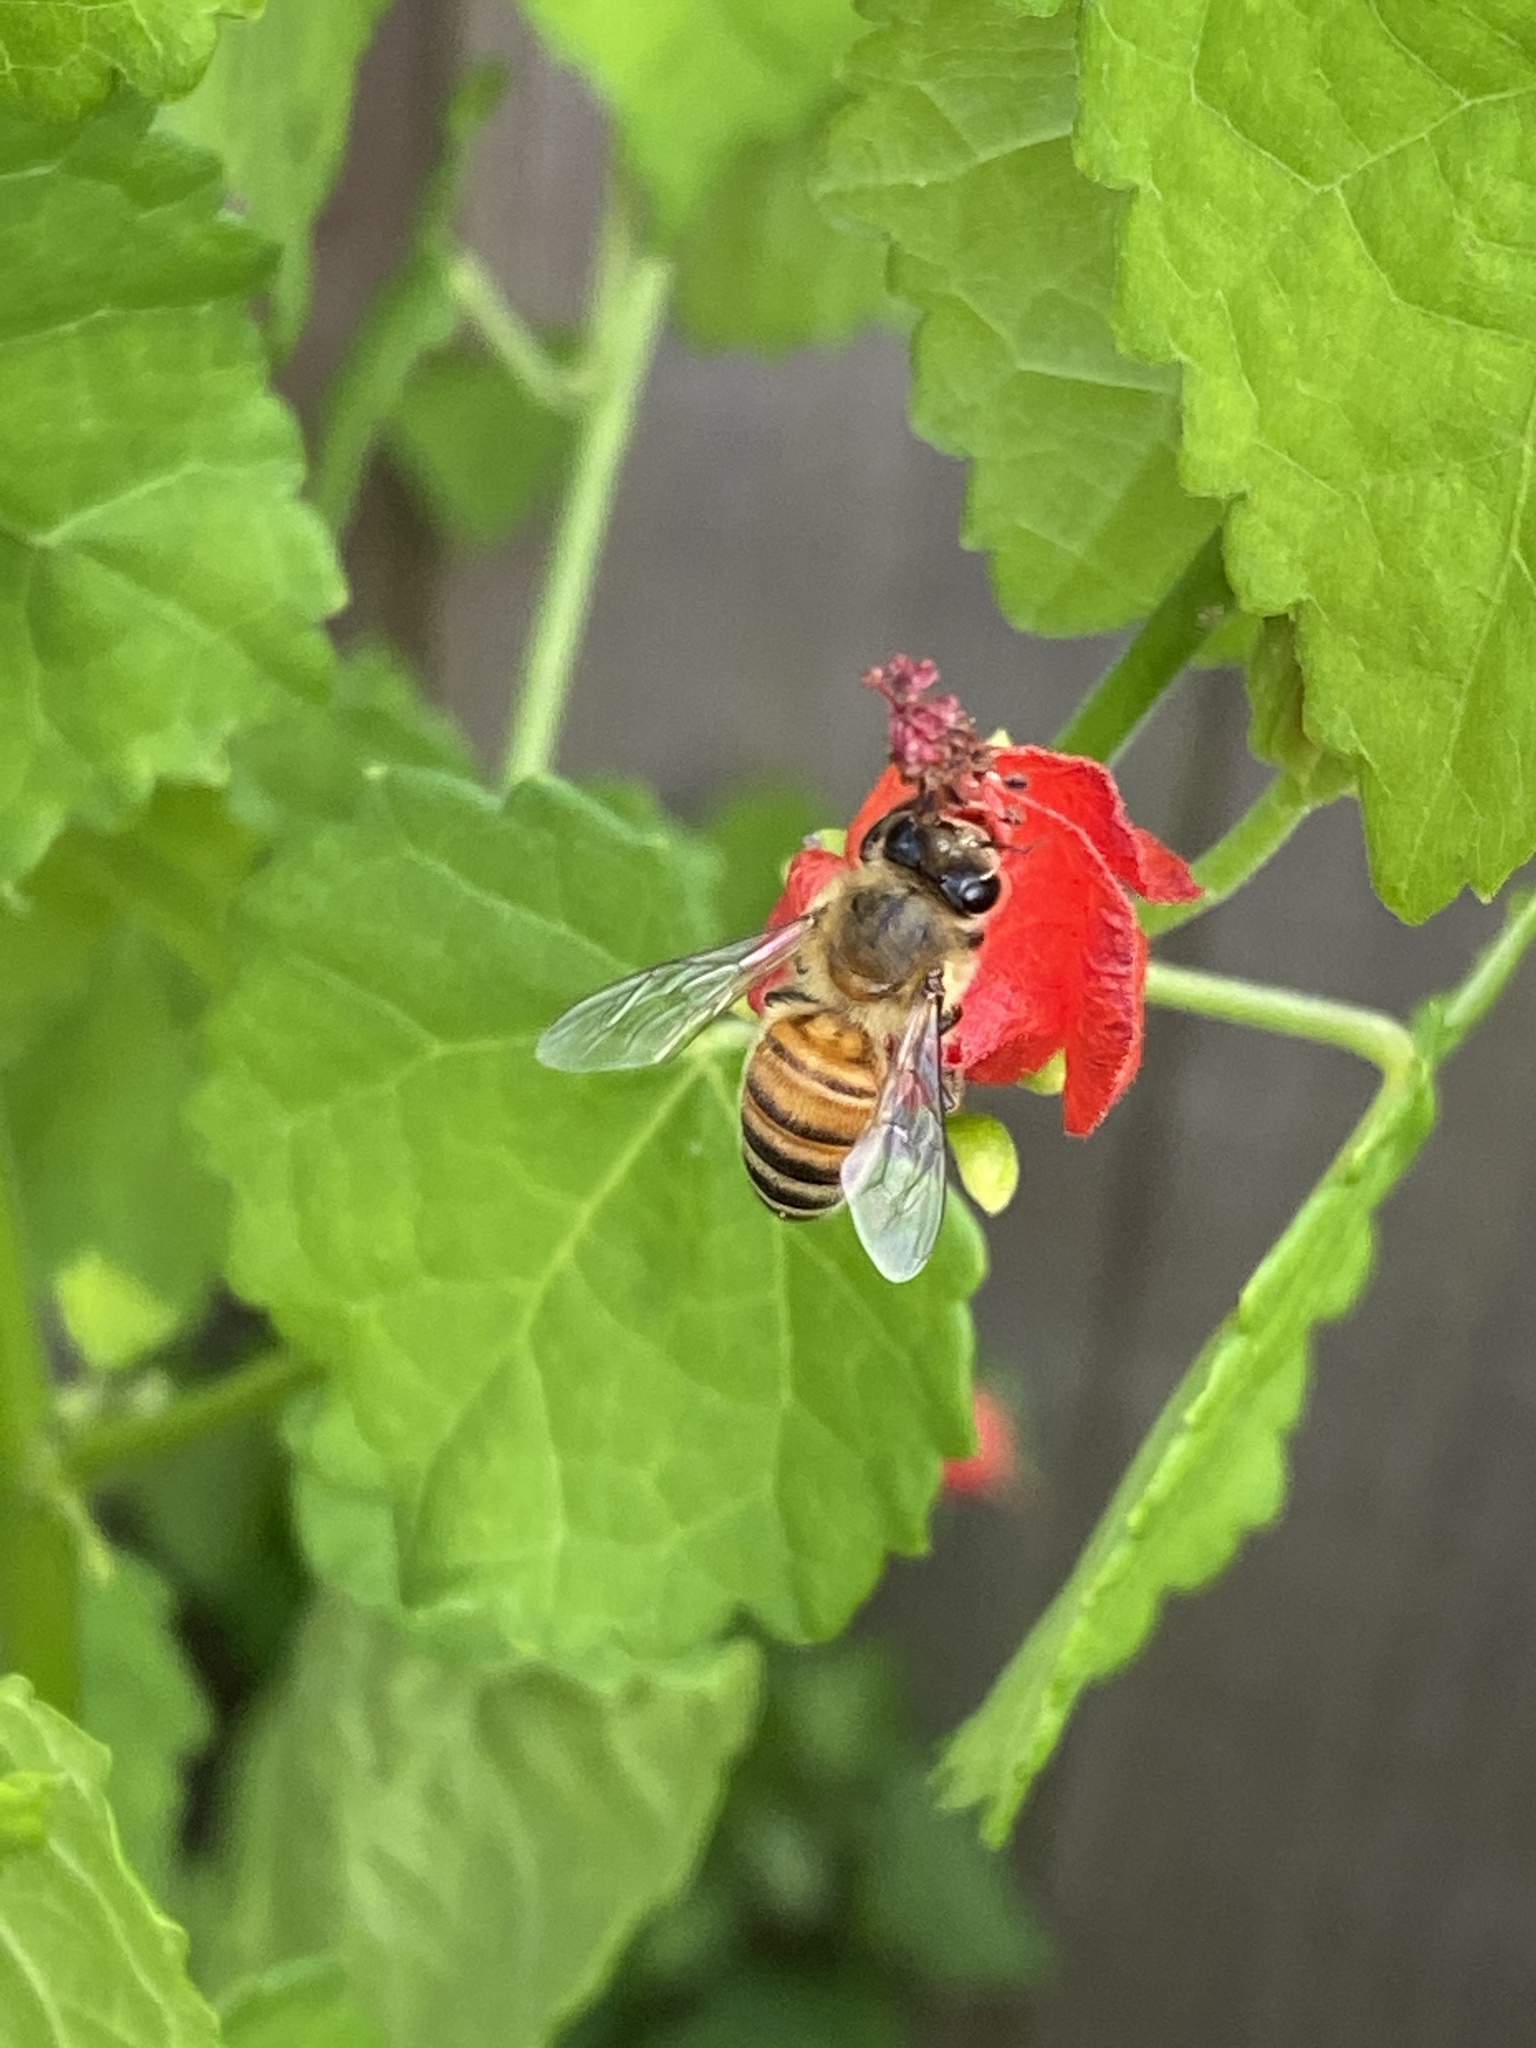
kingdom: Animalia
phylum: Arthropoda
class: Insecta
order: Hymenoptera
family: Apidae
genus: Apis
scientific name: Apis mellifera
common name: Honey bee
